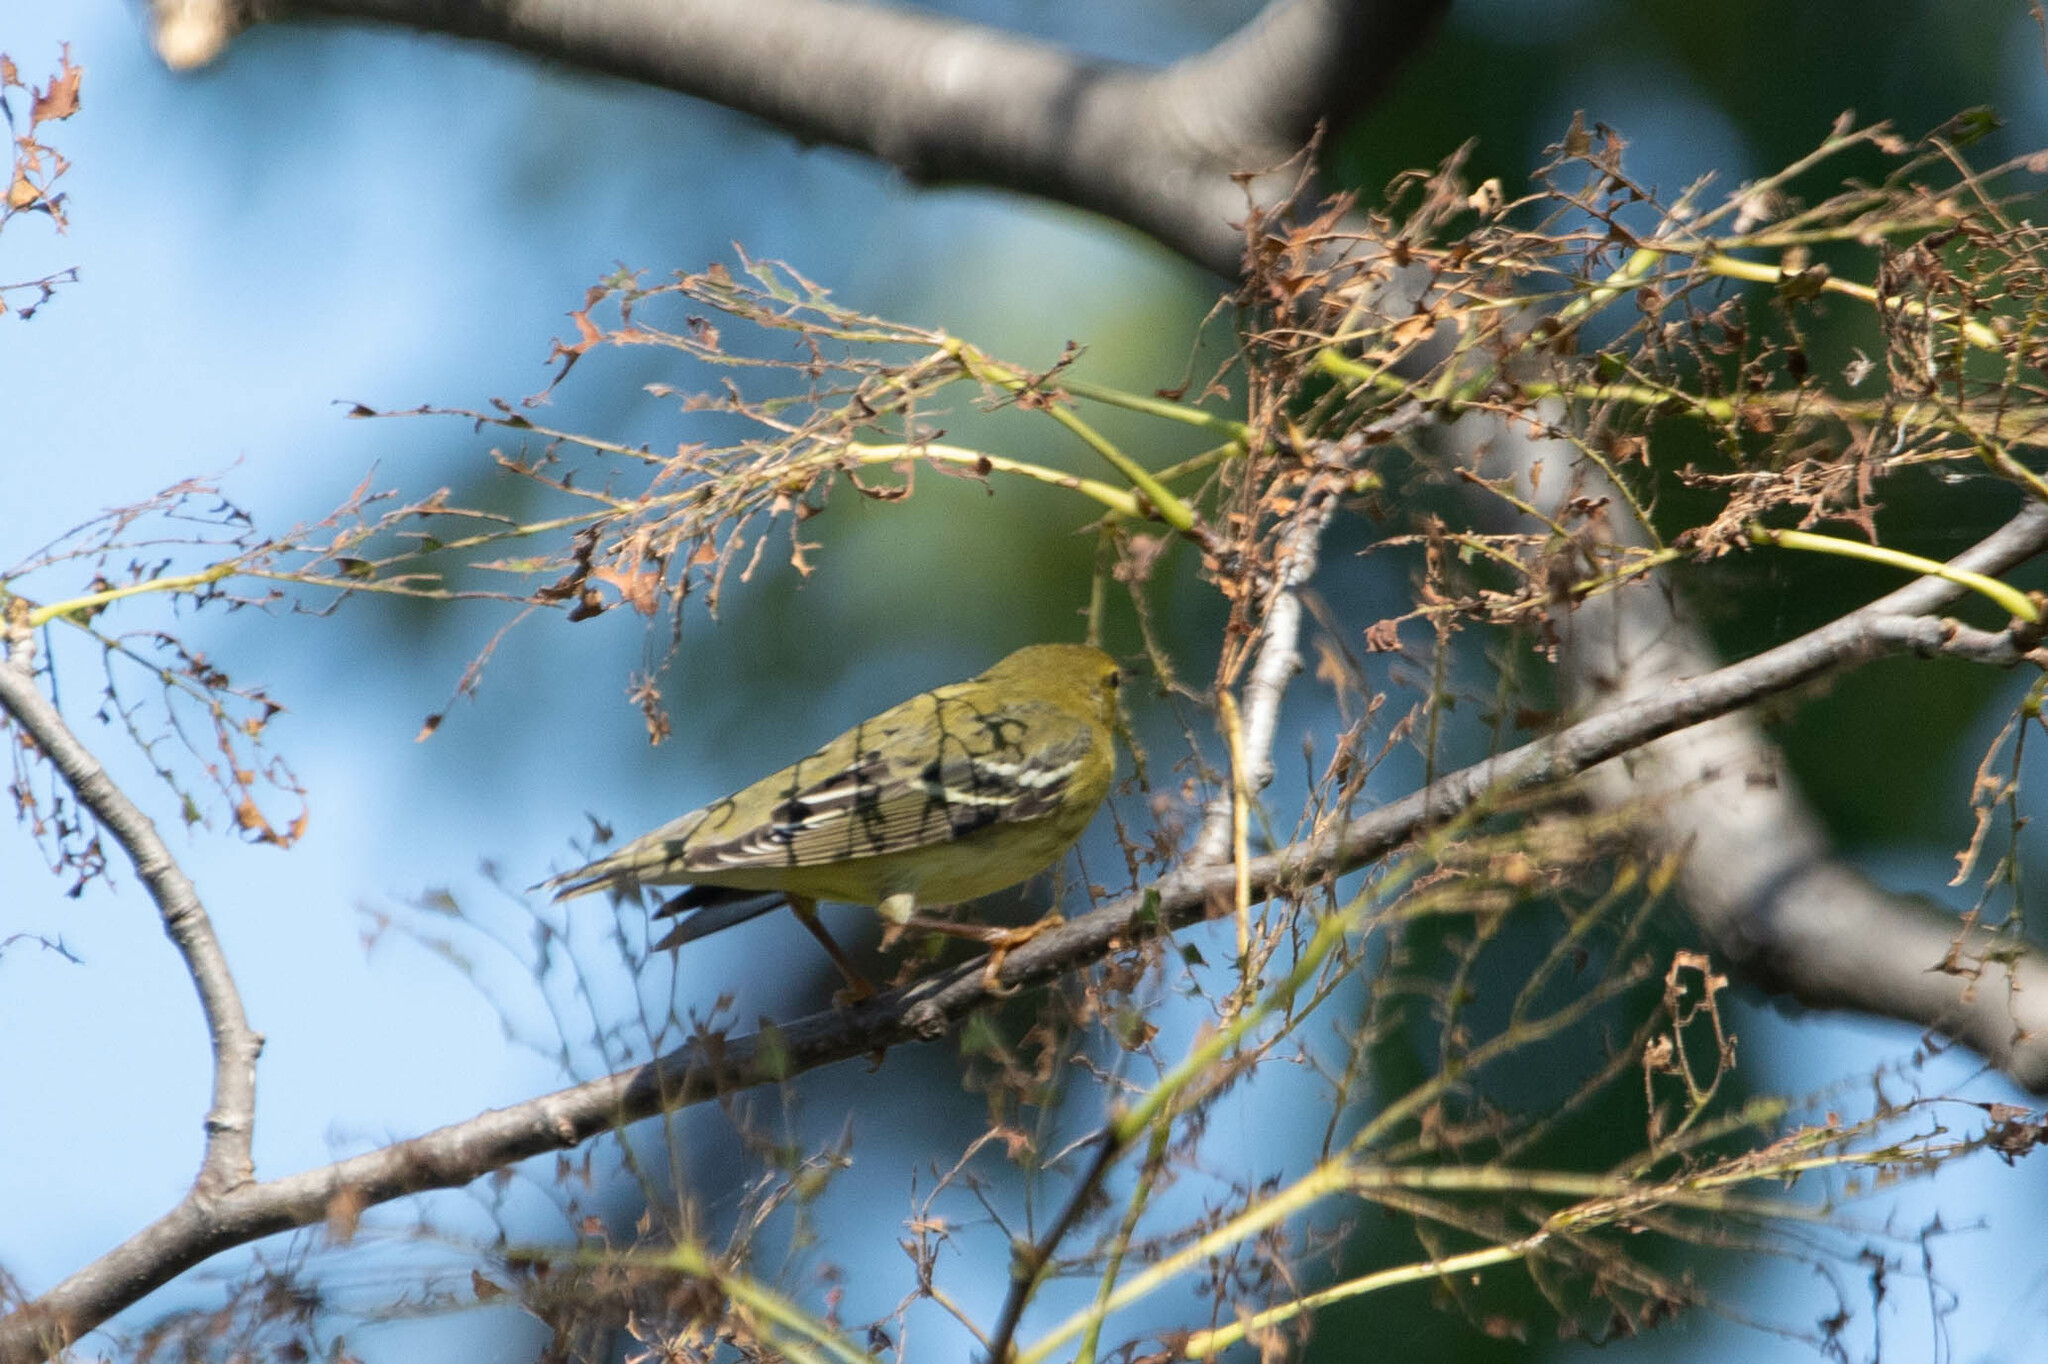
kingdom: Animalia
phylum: Chordata
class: Aves
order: Passeriformes
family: Parulidae
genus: Setophaga
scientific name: Setophaga striata
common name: Blackpoll warbler
